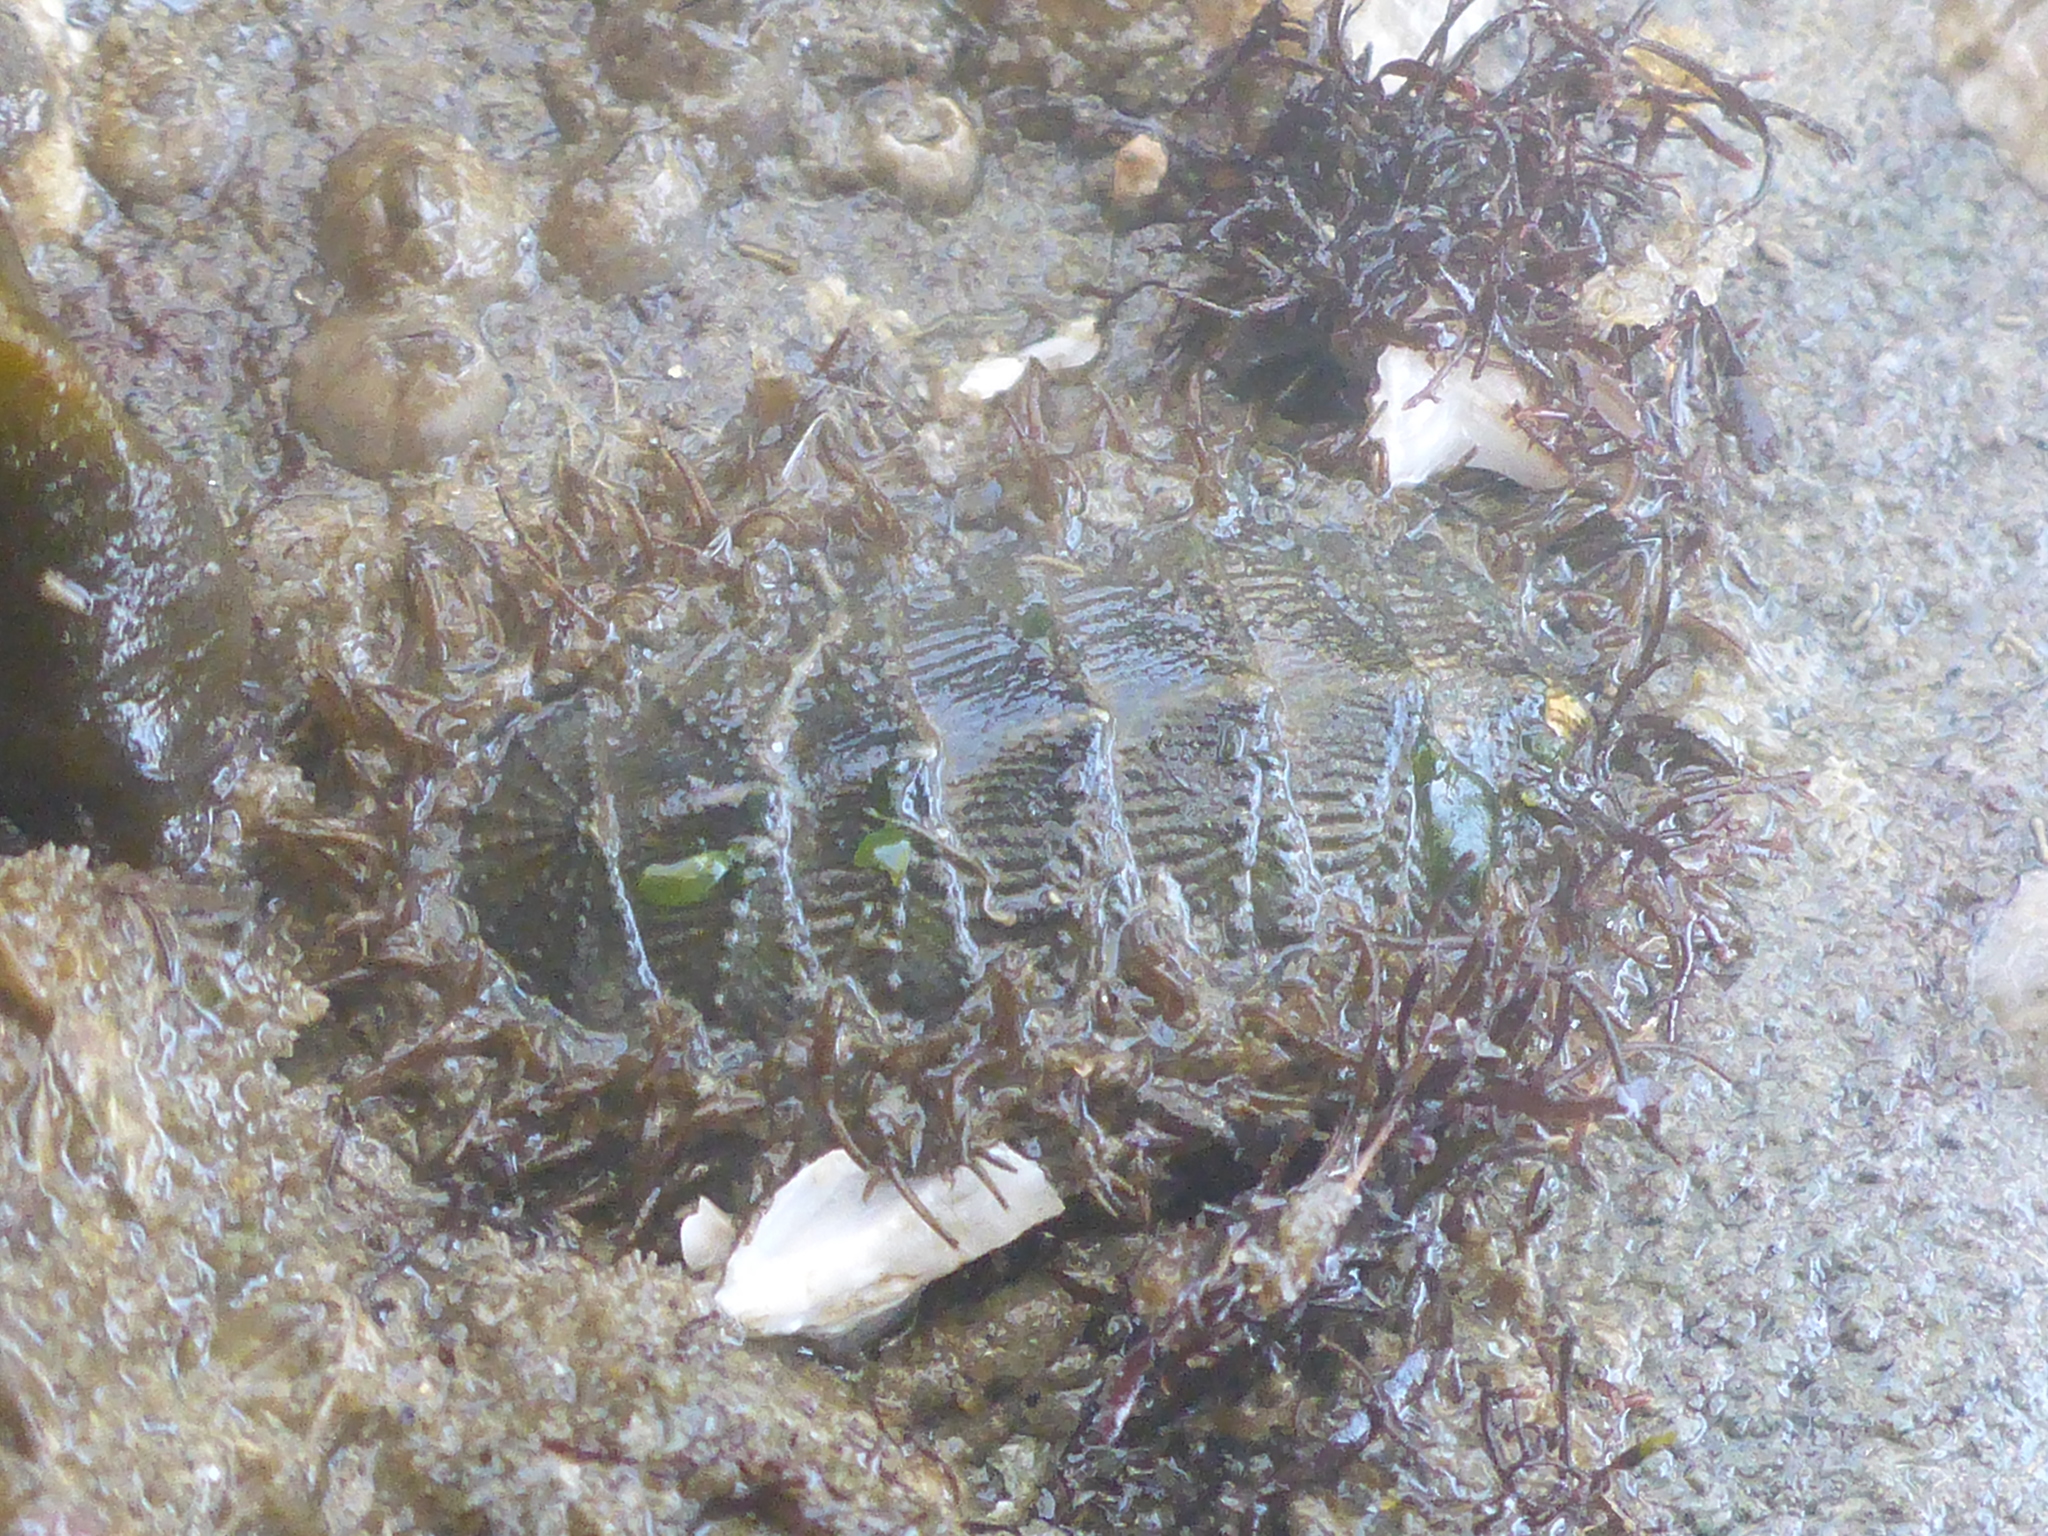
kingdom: Animalia
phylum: Mollusca
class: Polyplacophora
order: Chitonida
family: Mopaliidae
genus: Mopalia
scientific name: Mopalia muscosa
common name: Mossy chiton
